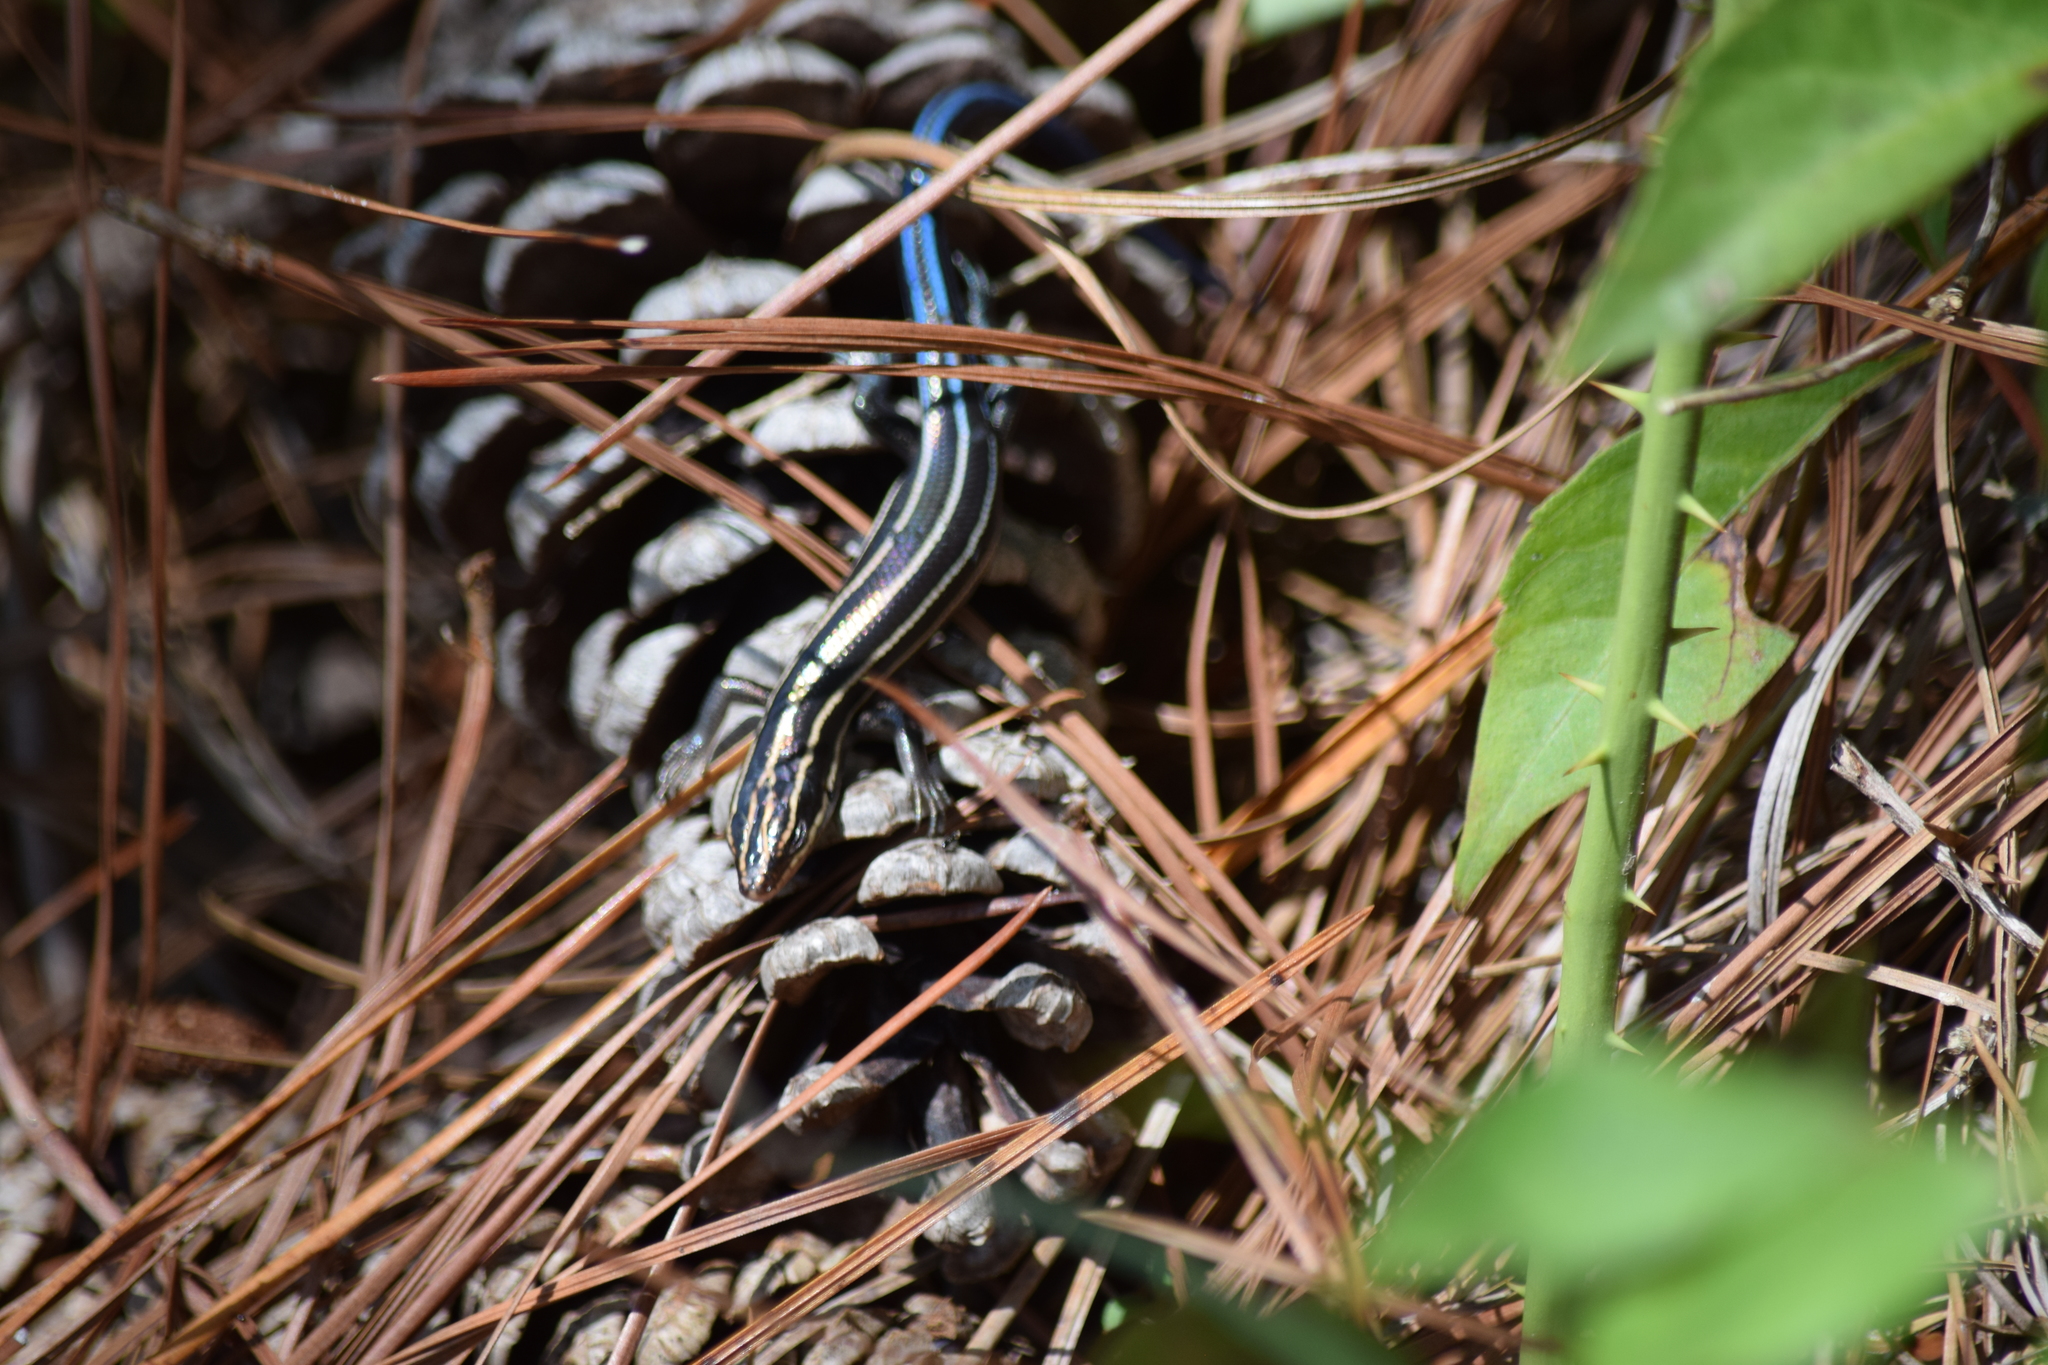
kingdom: Animalia
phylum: Chordata
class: Squamata
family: Scincidae
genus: Plestiodon
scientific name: Plestiodon fasciatus
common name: Five-lined skink
